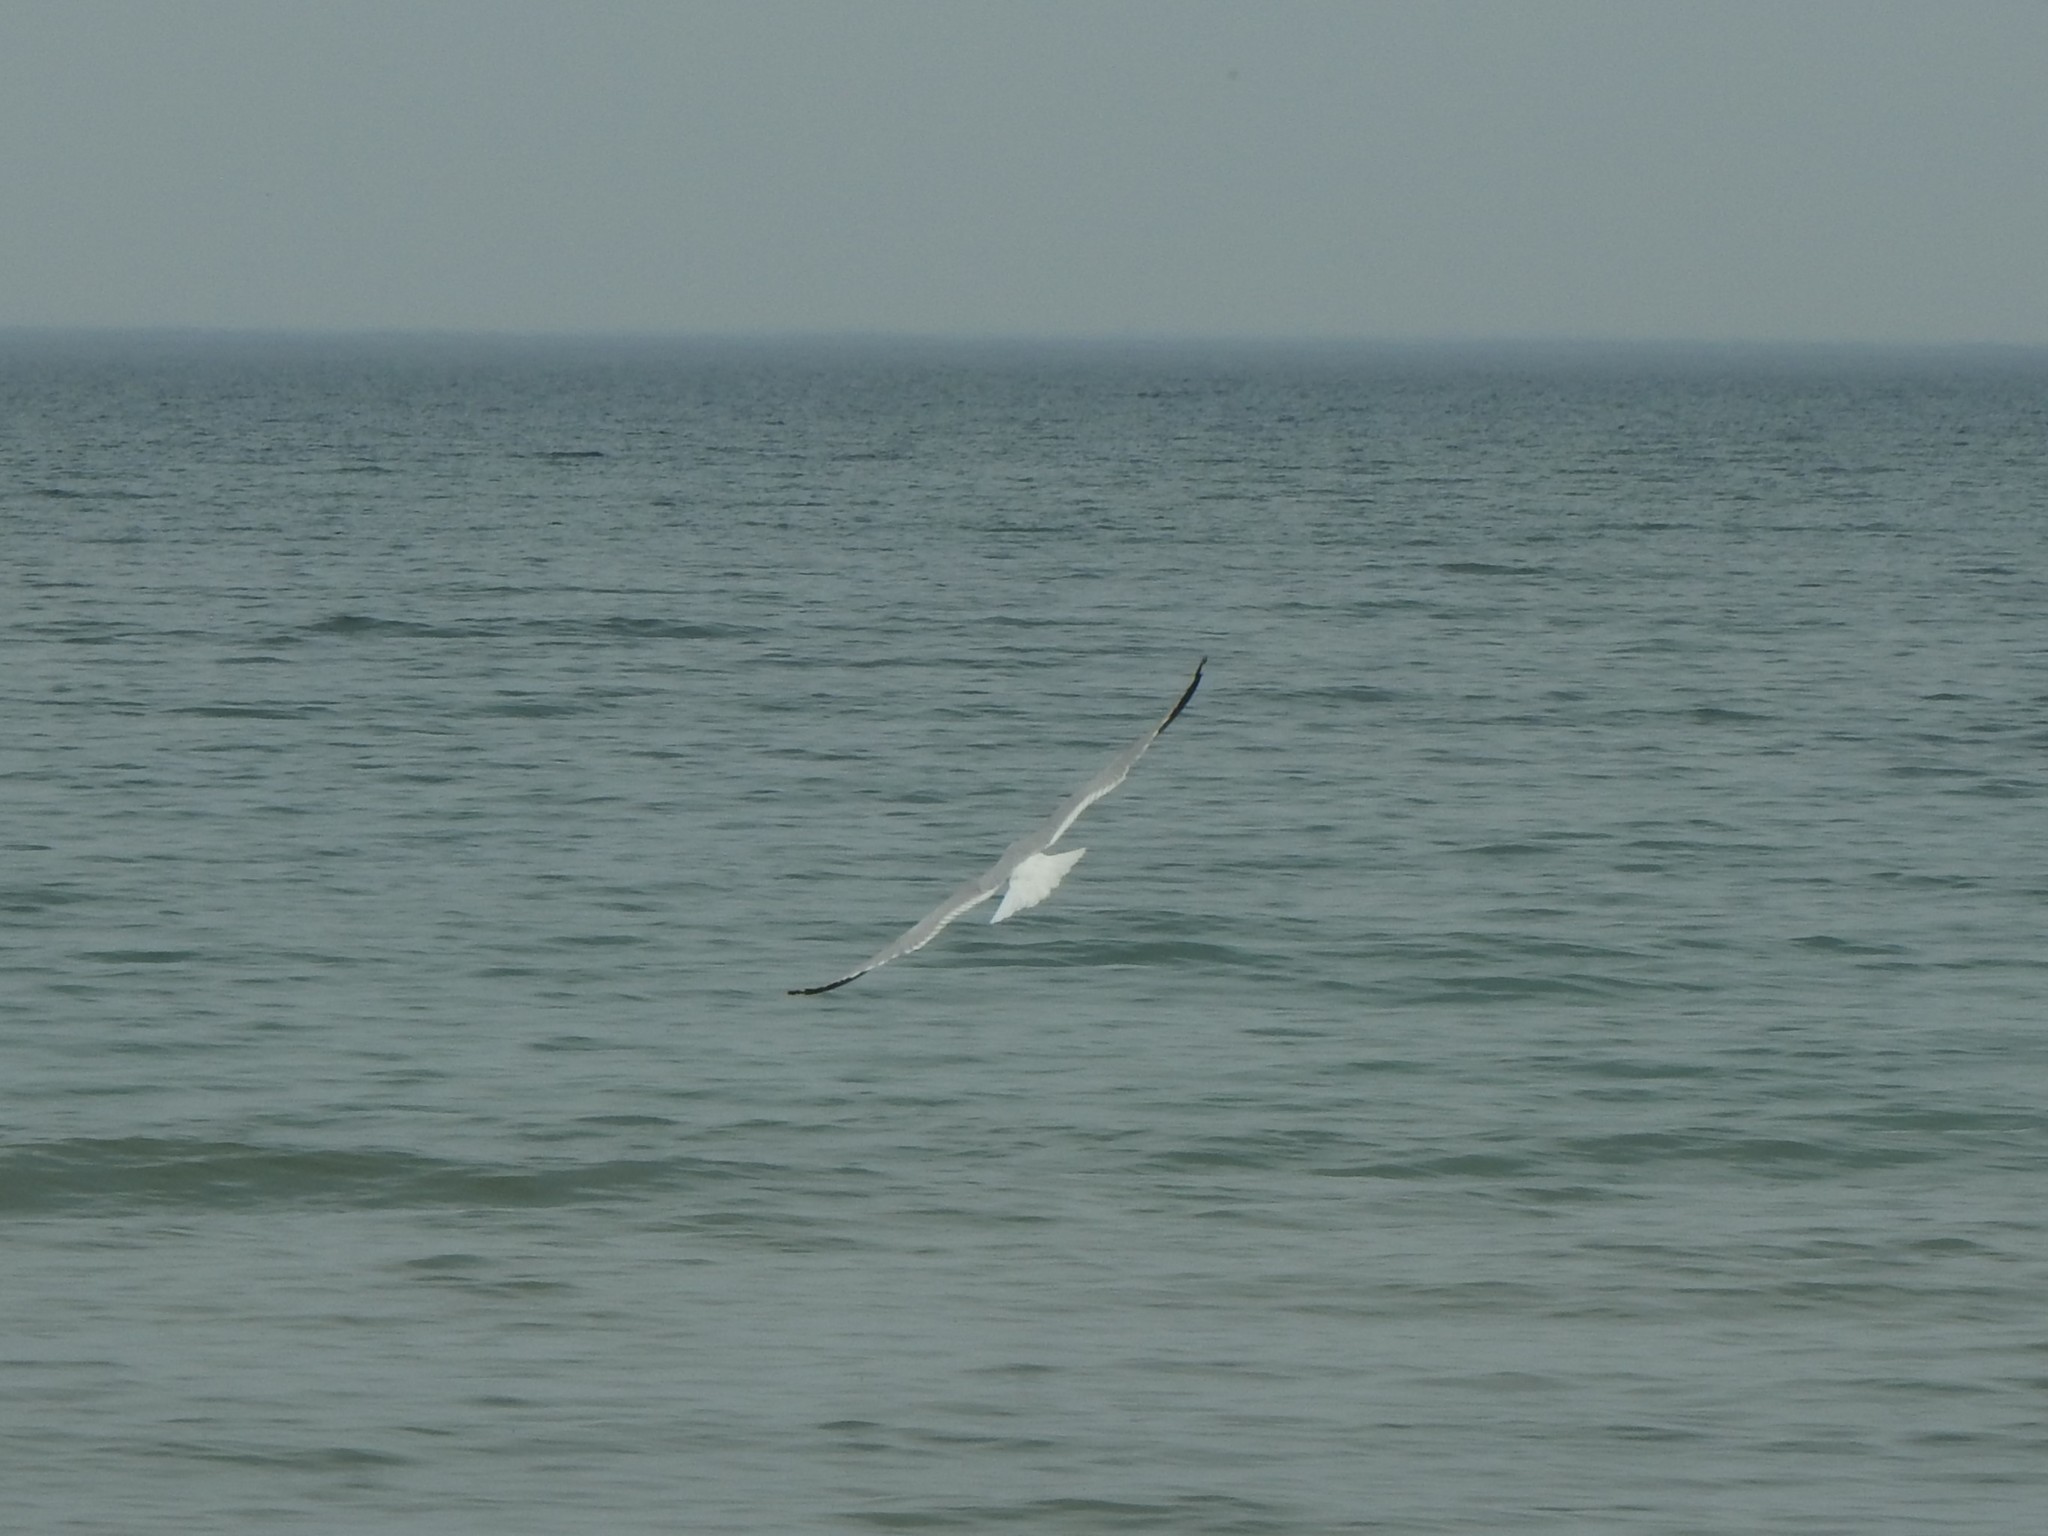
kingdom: Animalia
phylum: Chordata
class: Aves
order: Charadriiformes
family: Laridae
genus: Larus
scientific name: Larus argentatus
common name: Herring gull
